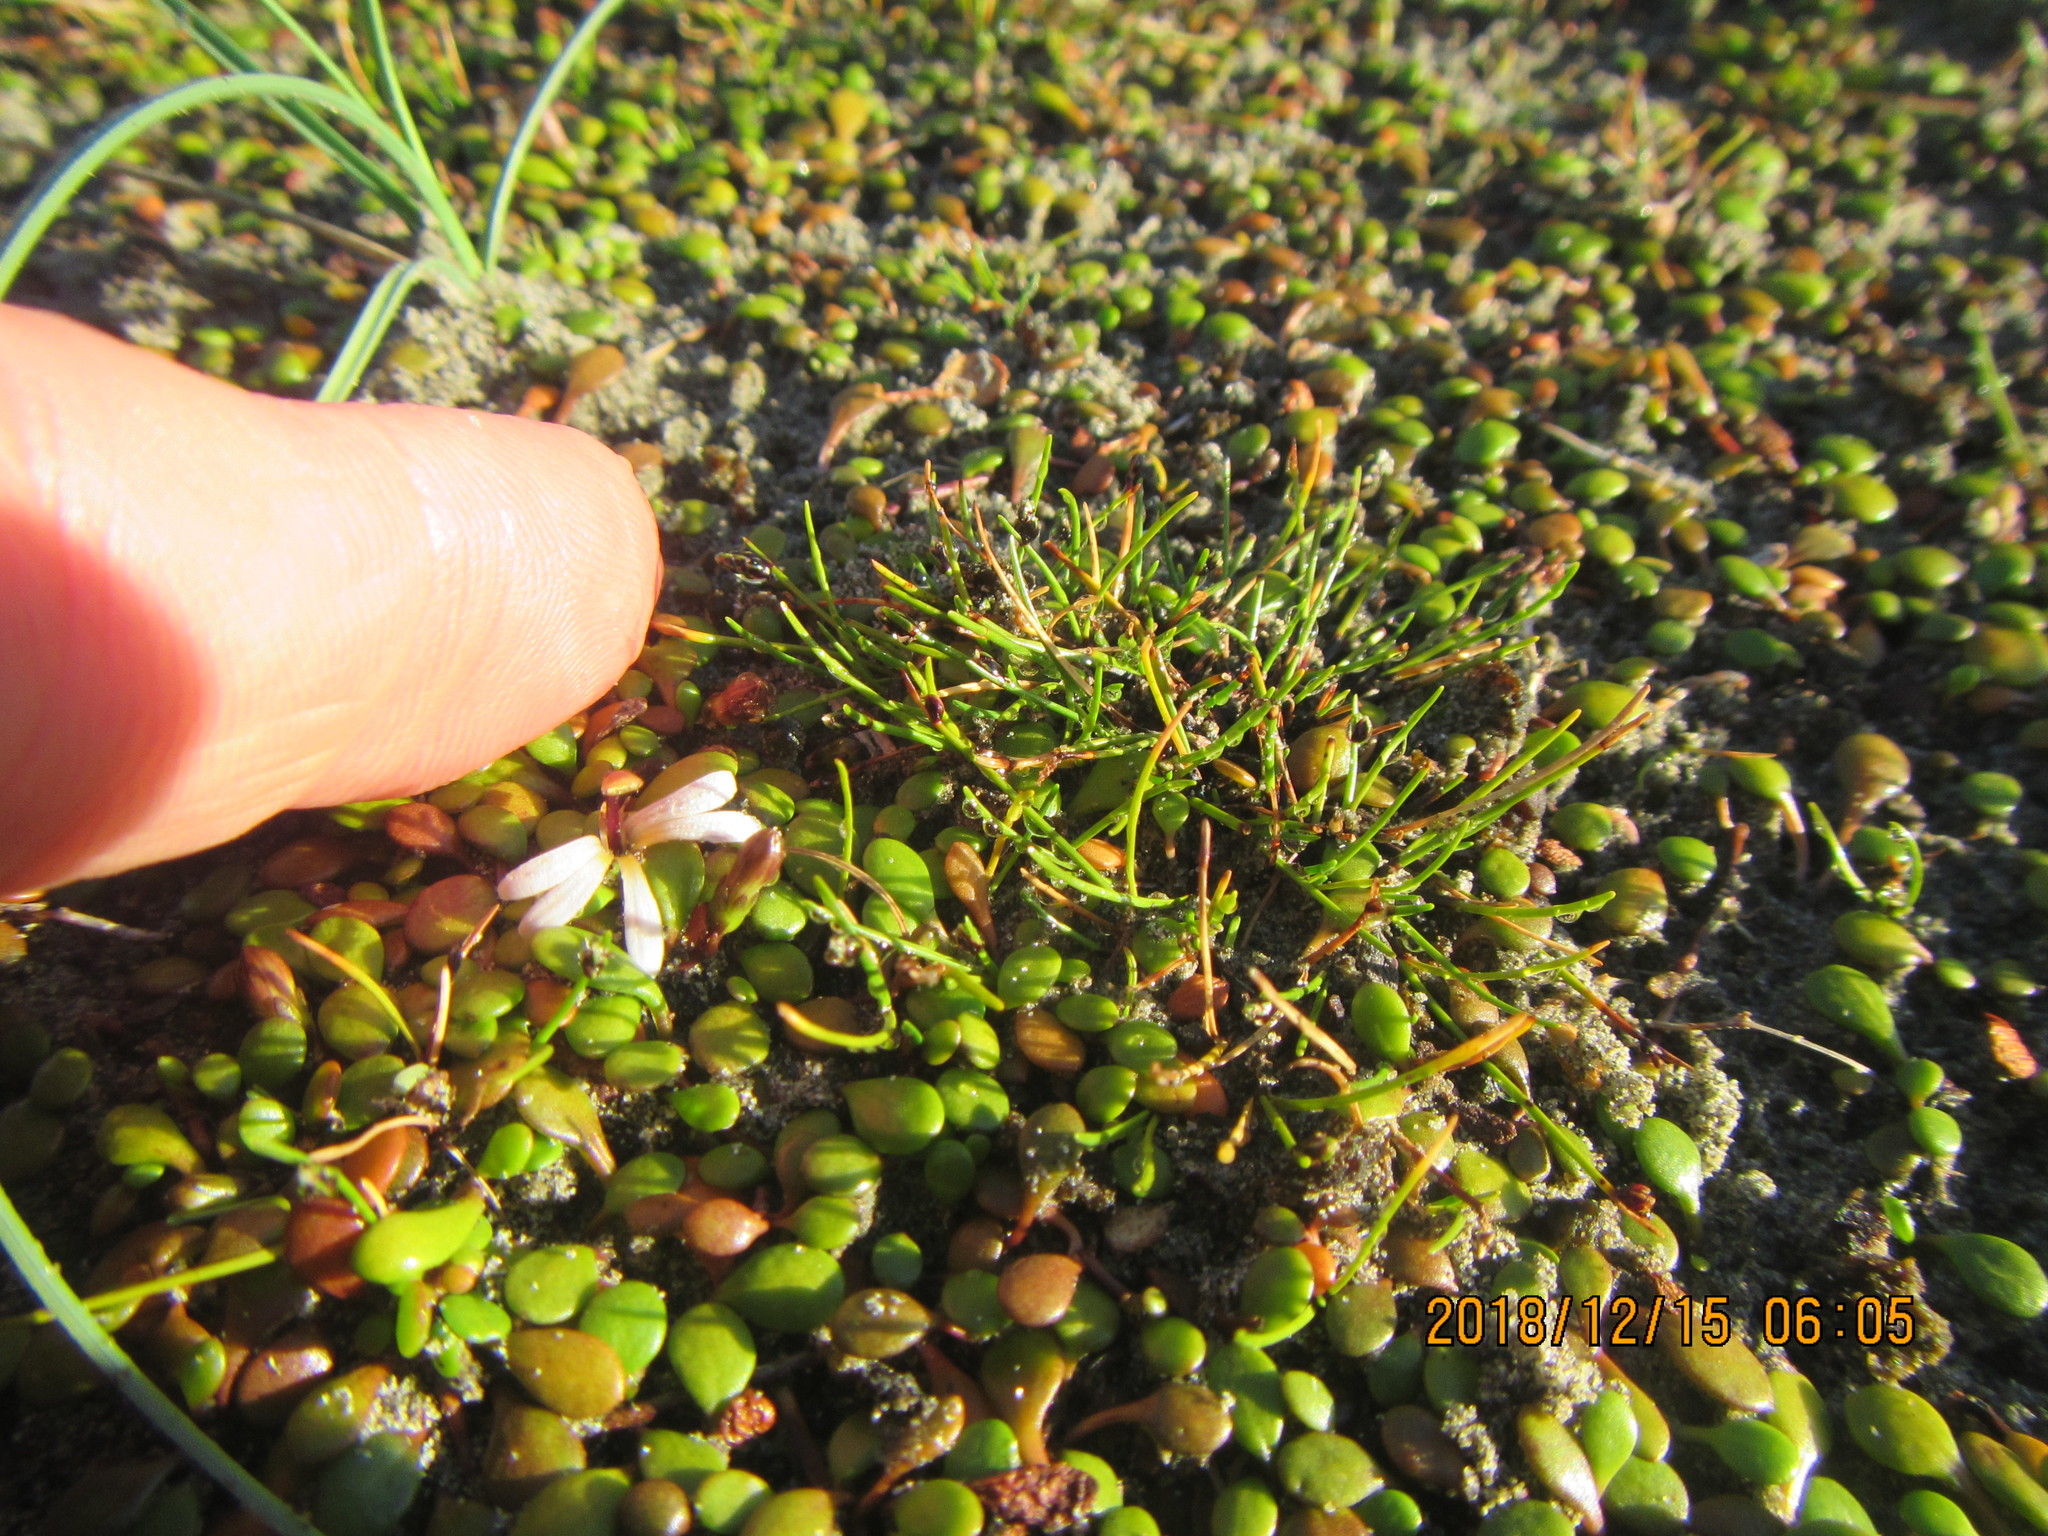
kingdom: Plantae
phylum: Tracheophyta
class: Magnoliopsida
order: Asterales
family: Goodeniaceae
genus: Goodenia
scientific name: Goodenia heenanii
